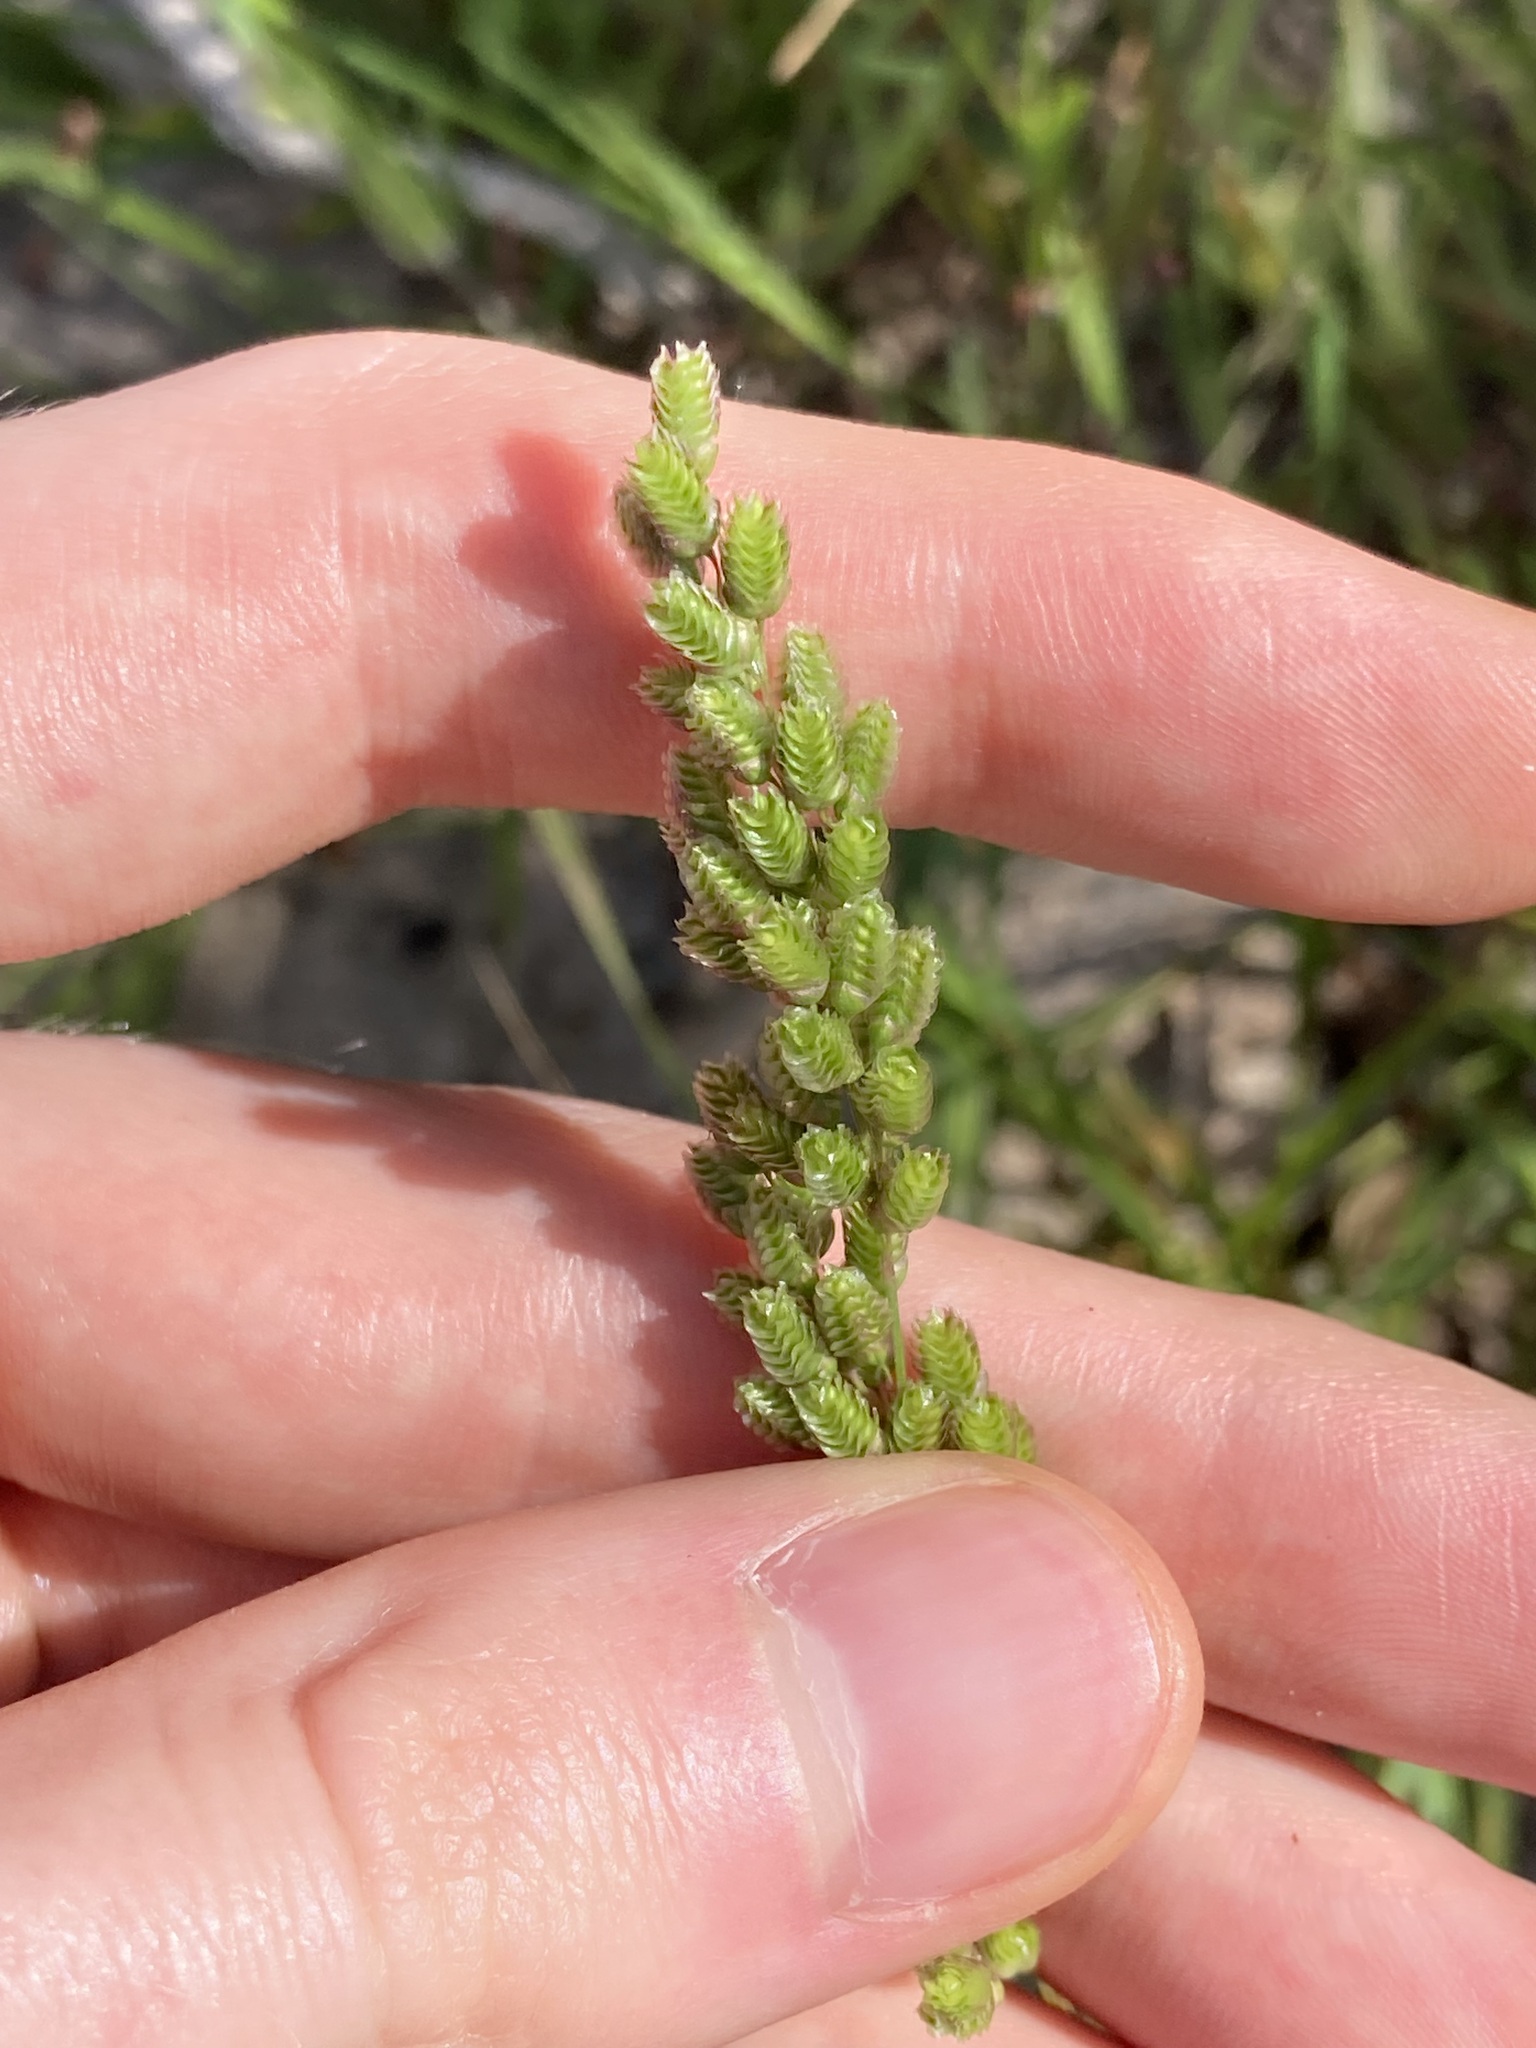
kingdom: Plantae
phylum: Tracheophyta
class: Liliopsida
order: Poales
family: Poaceae
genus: Chascolytrum
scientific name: Chascolytrum subaristatum
